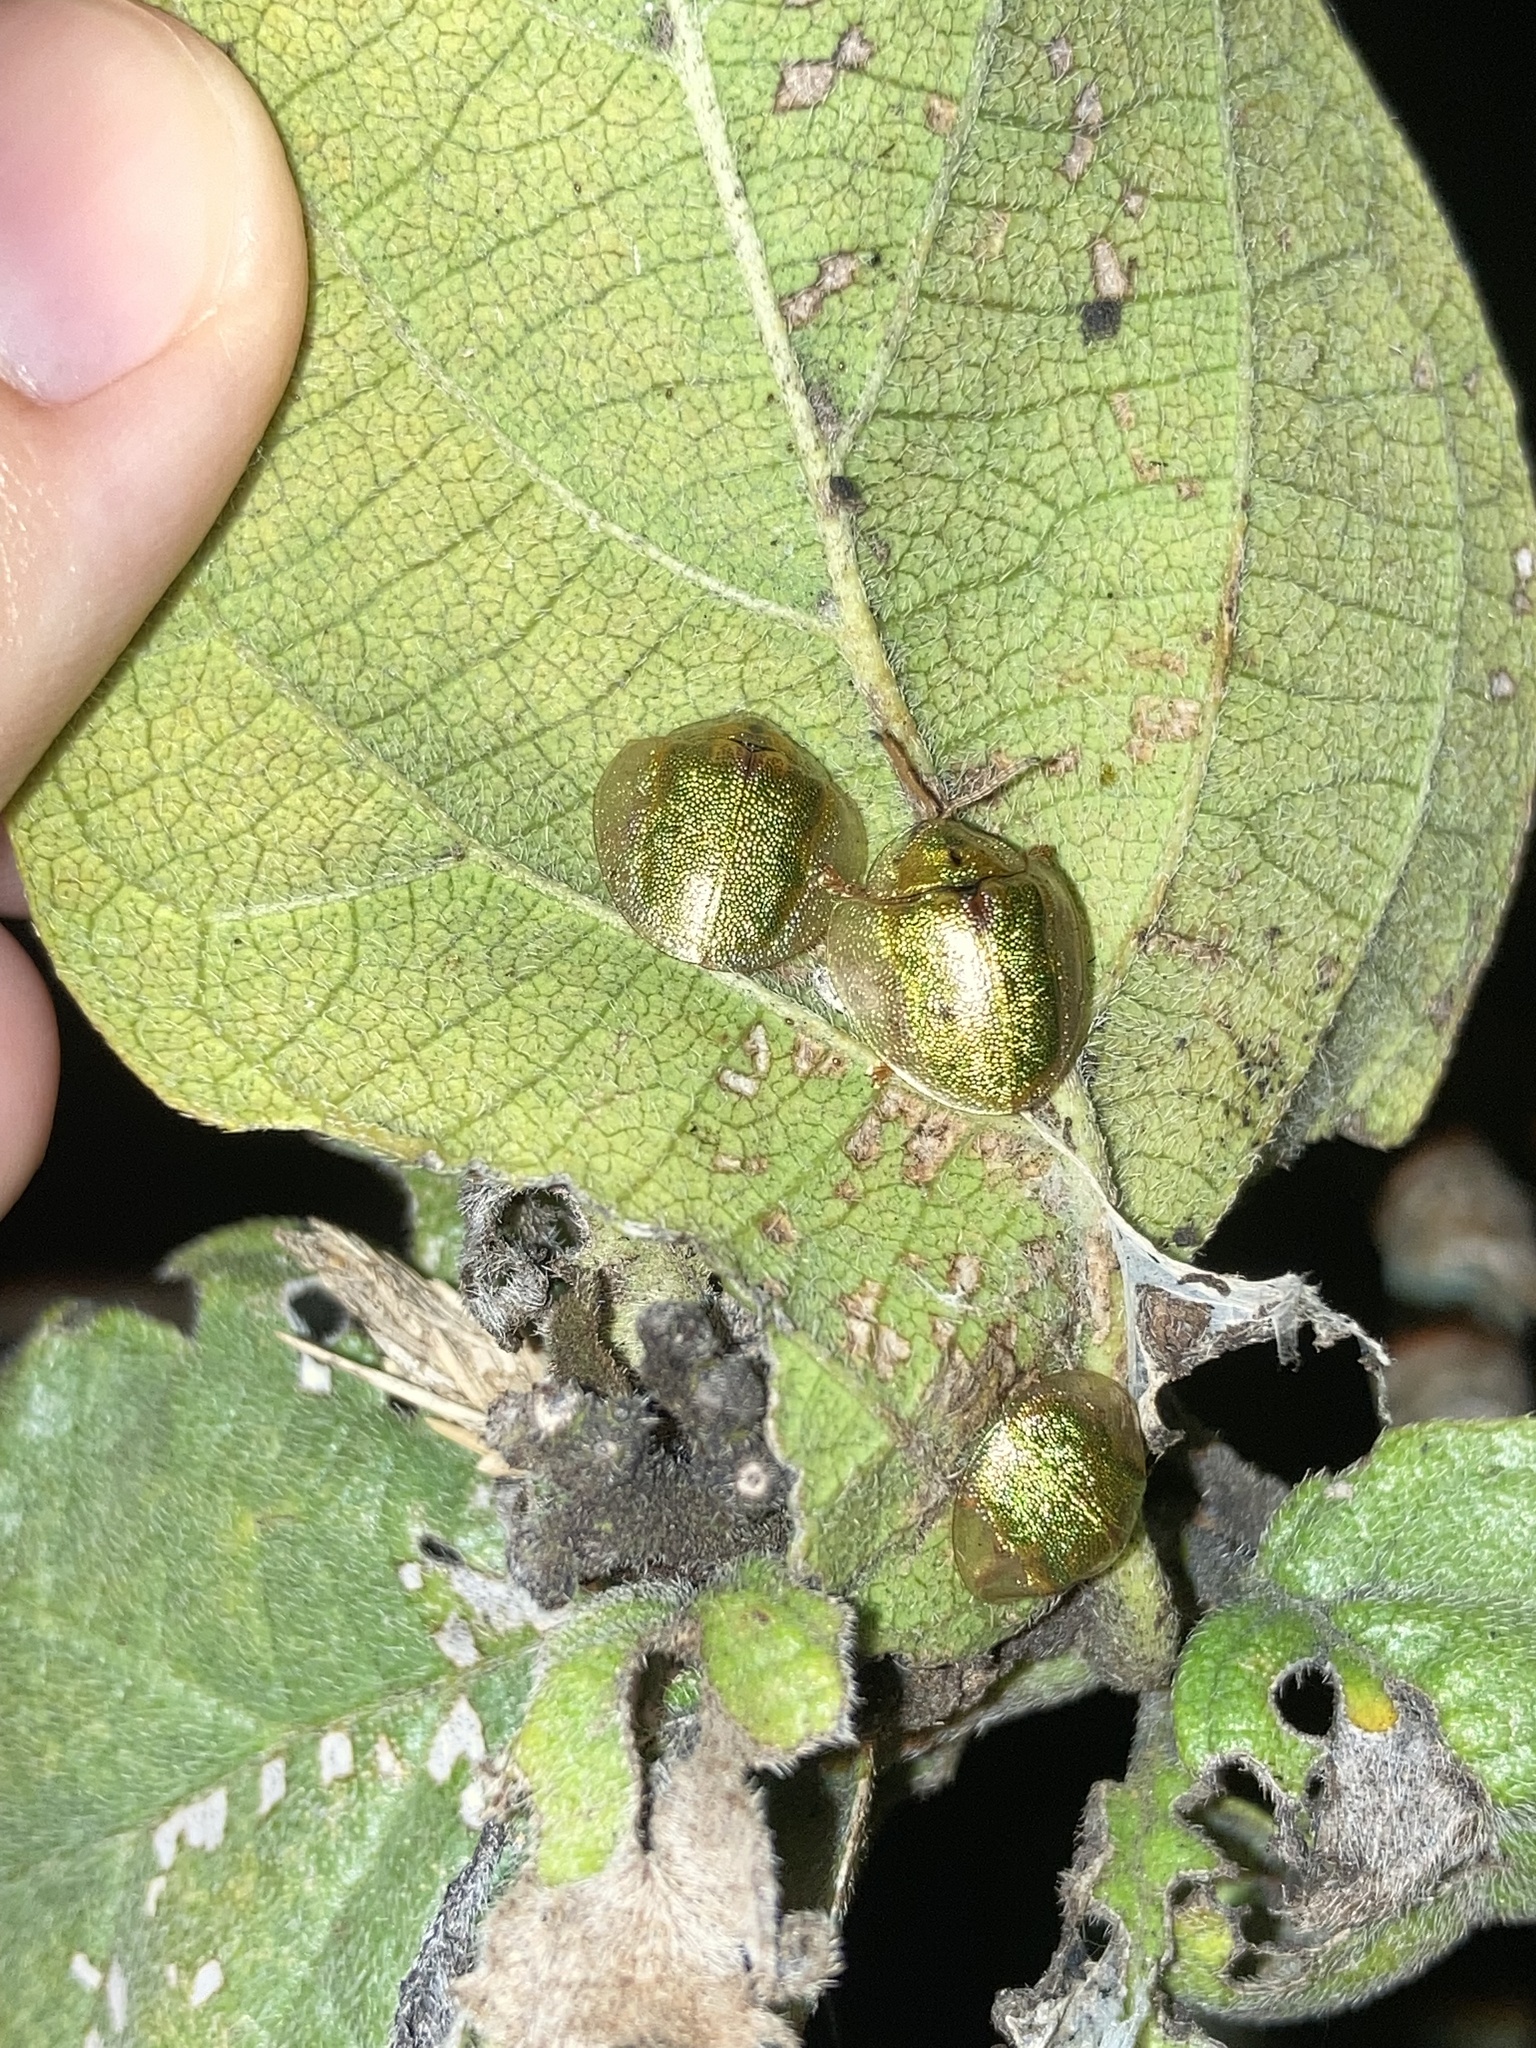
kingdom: Animalia
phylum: Arthropoda
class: Insecta
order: Coleoptera
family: Chrysomelidae
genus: Eurypepla
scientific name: Eurypepla calochroma
